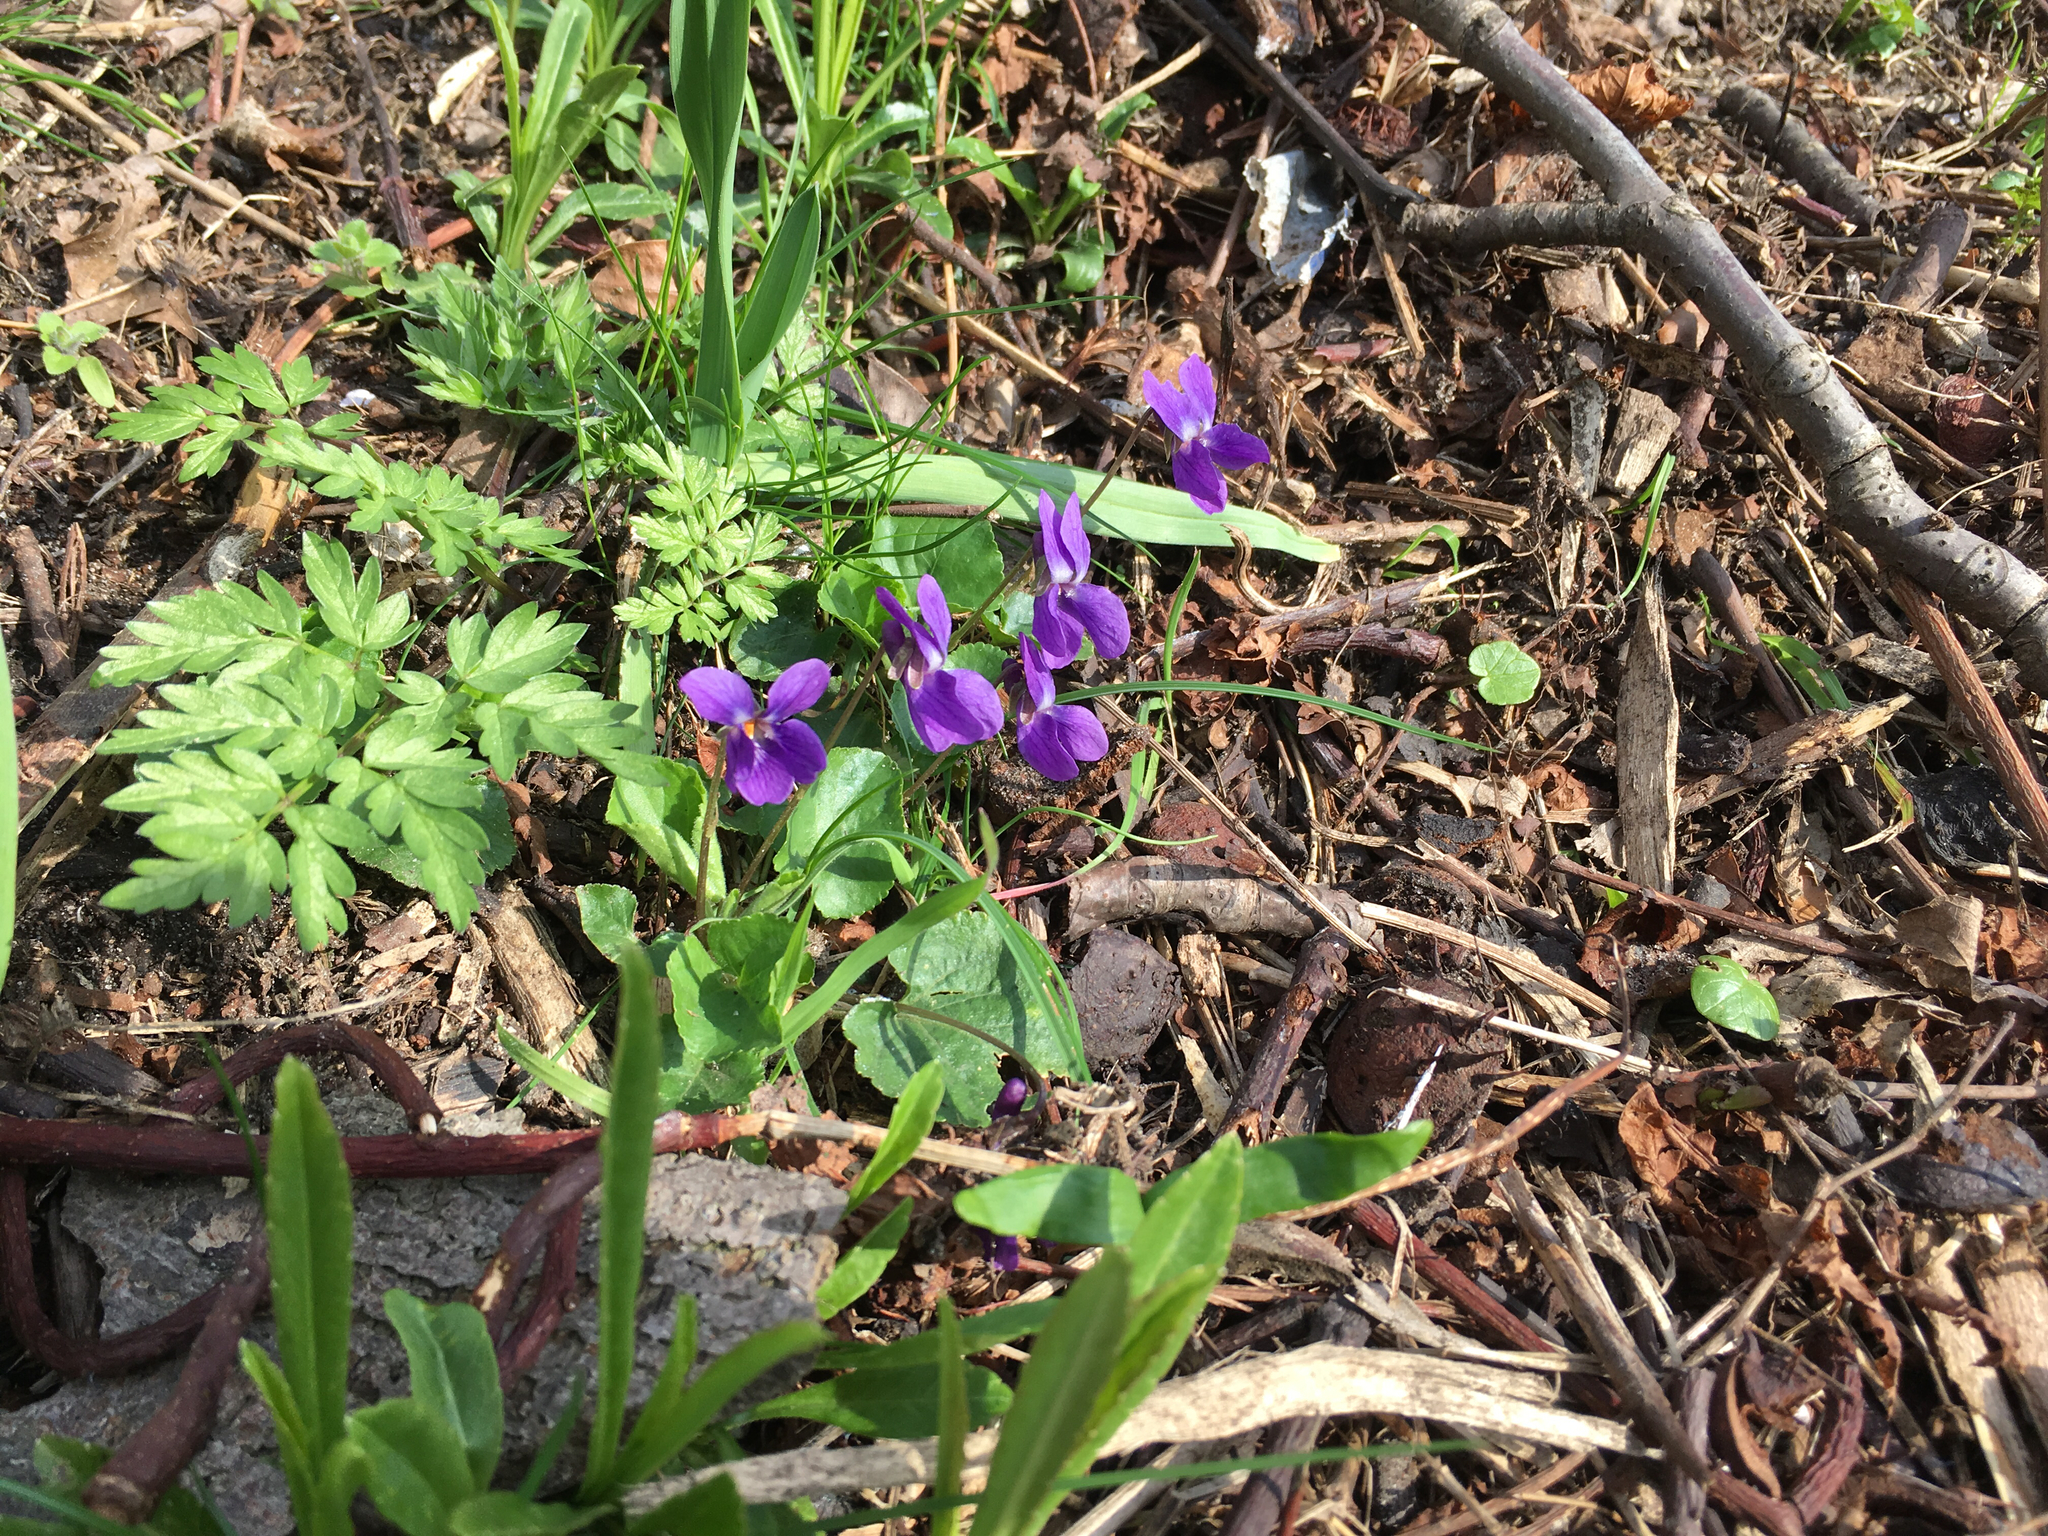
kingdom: Plantae
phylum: Tracheophyta
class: Magnoliopsida
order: Malpighiales
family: Violaceae
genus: Viola
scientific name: Viola odorata
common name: Sweet violet
